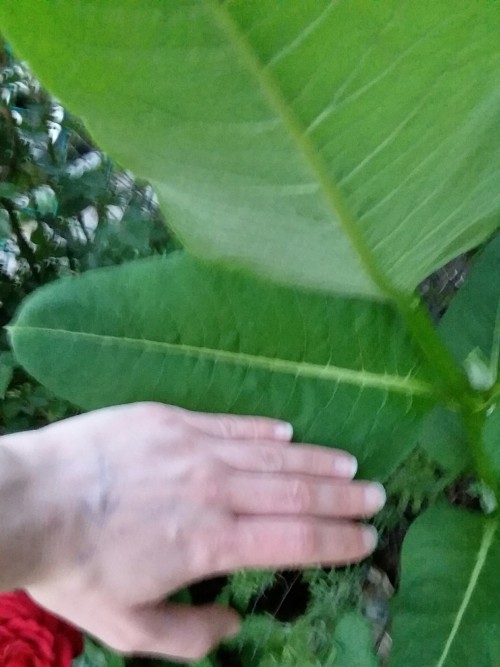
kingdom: Plantae
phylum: Tracheophyta
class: Magnoliopsida
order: Gentianales
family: Apocynaceae
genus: Asclepias
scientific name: Asclepias syriaca
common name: Common milkweed
